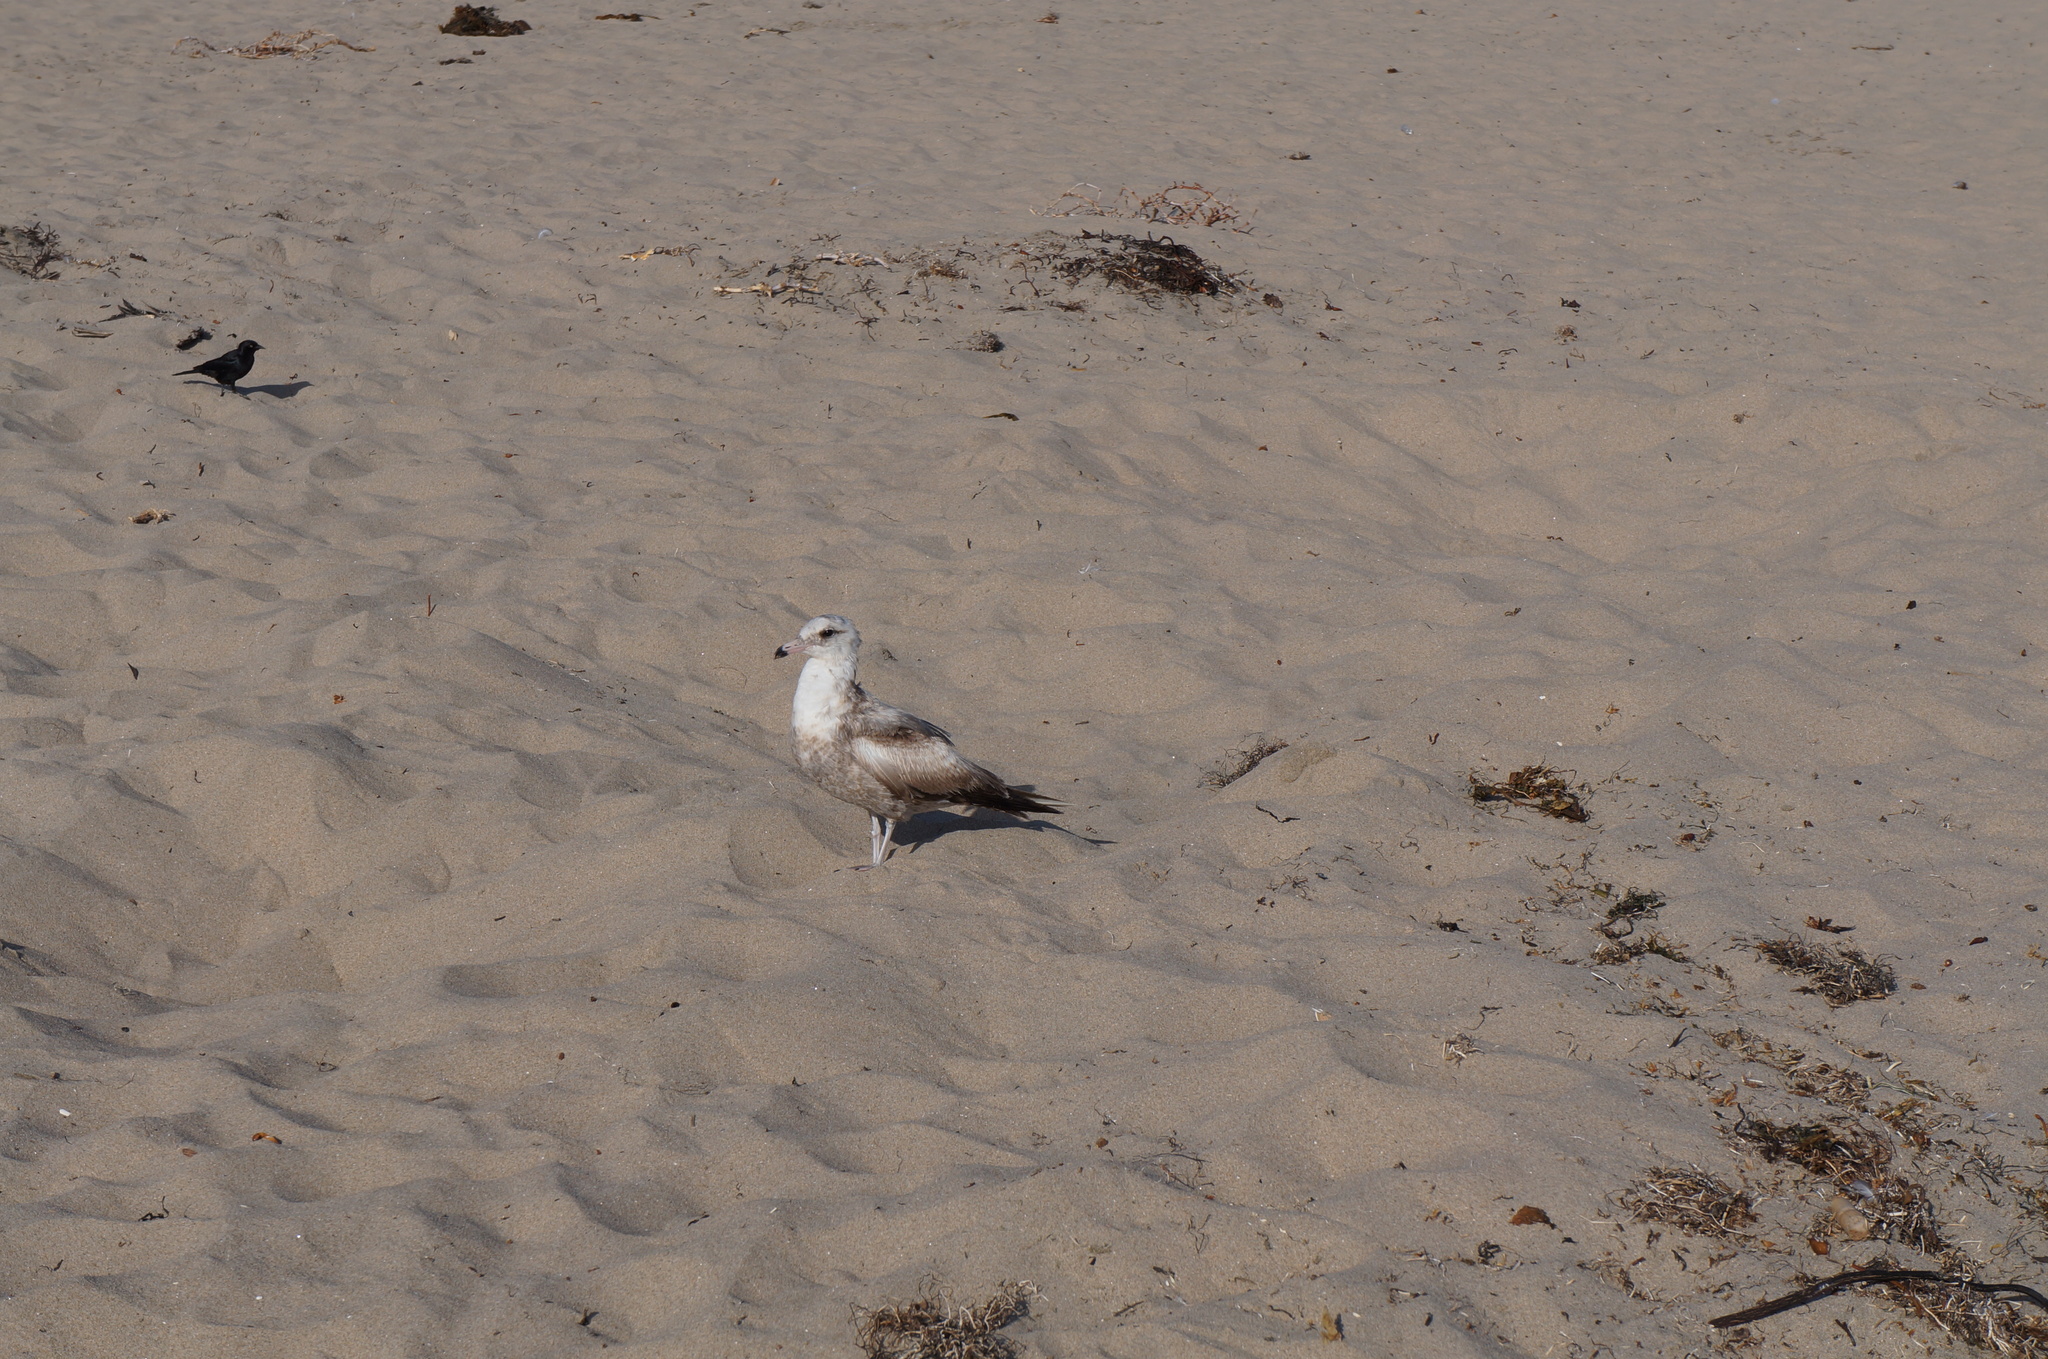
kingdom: Animalia
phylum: Chordata
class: Aves
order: Charadriiformes
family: Laridae
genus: Larus
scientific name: Larus occidentalis
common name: Western gull
